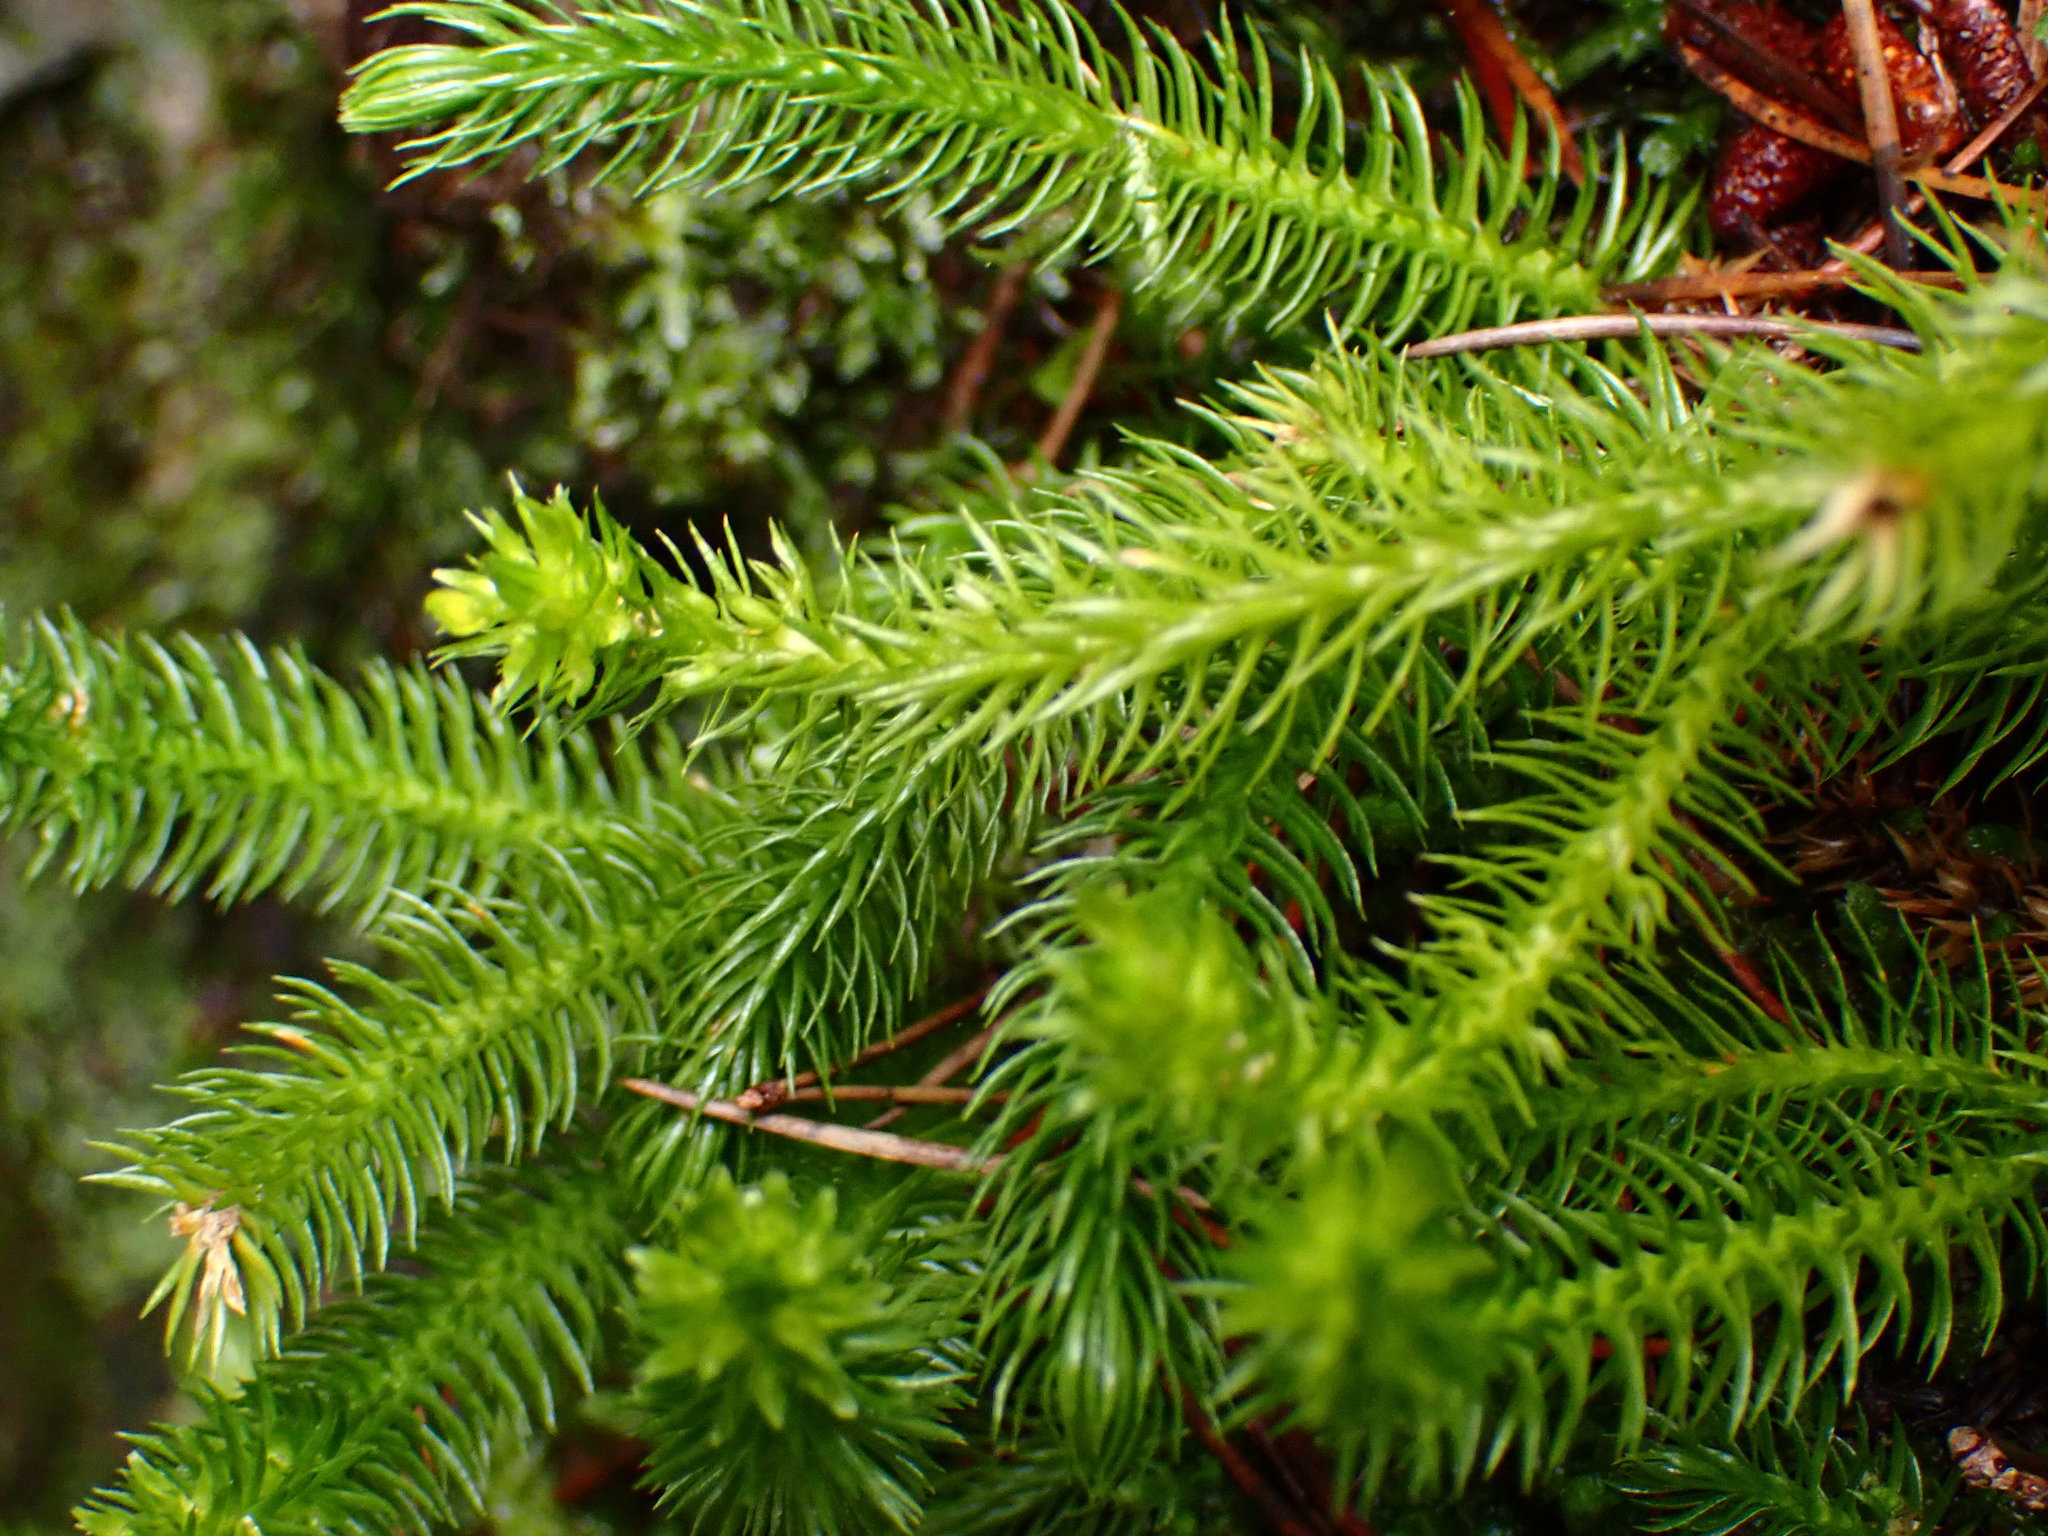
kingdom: Plantae
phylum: Tracheophyta
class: Lycopodiopsida
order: Lycopodiales
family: Lycopodiaceae
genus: Huperzia
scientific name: Huperzia miyoshiana
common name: Chinese clubmoss
